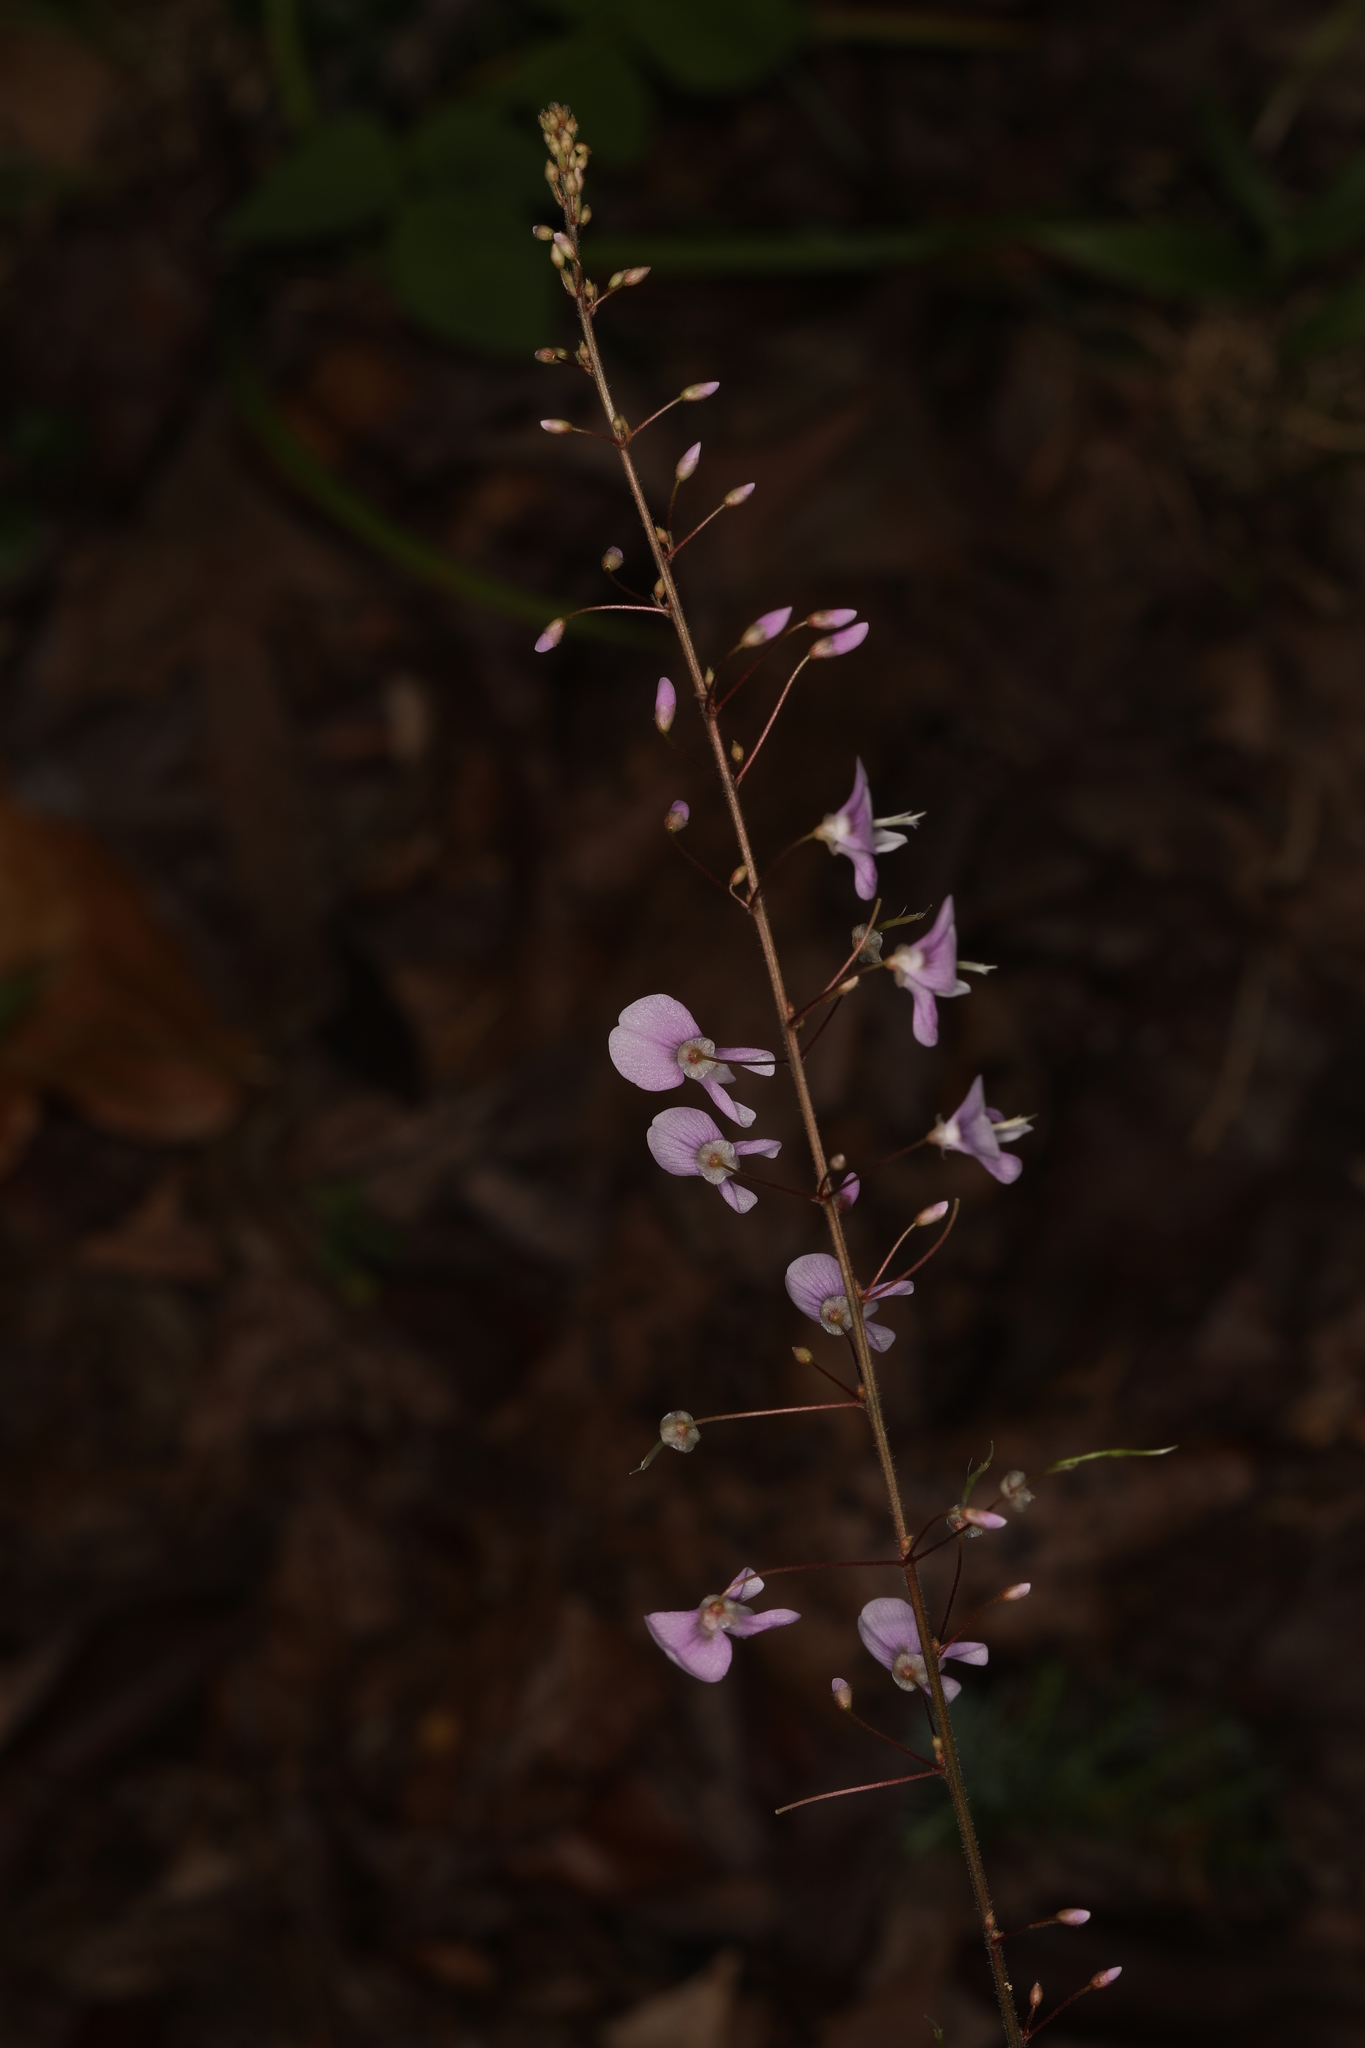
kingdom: Plantae
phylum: Tracheophyta
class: Magnoliopsida
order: Fabales
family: Fabaceae
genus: Hylodesmum
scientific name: Hylodesmum nudiflorum
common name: Bare-stemmed tick-trefoil
